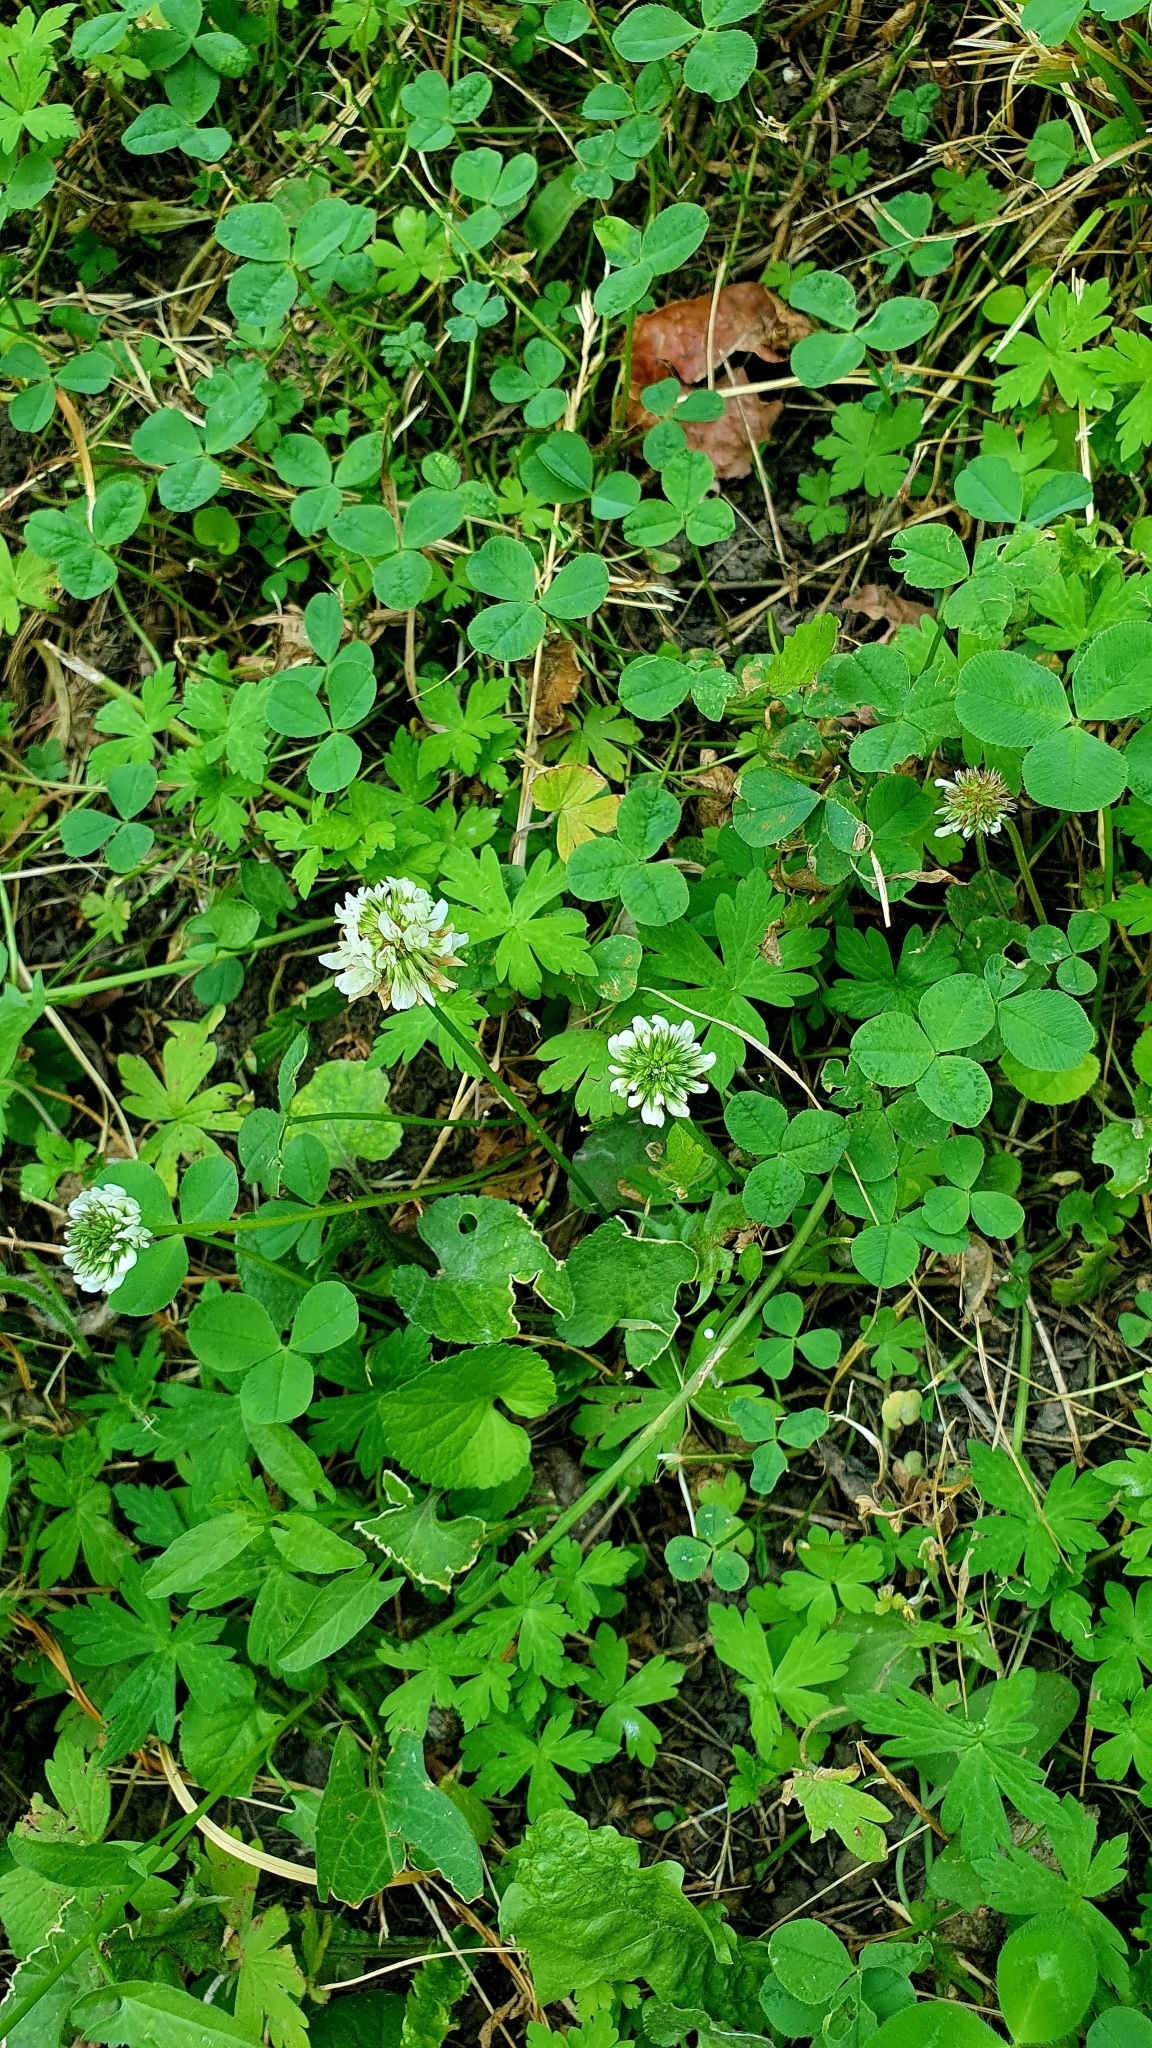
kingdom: Plantae
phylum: Tracheophyta
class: Magnoliopsida
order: Fabales
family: Fabaceae
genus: Trifolium
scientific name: Trifolium repens
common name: White clover
